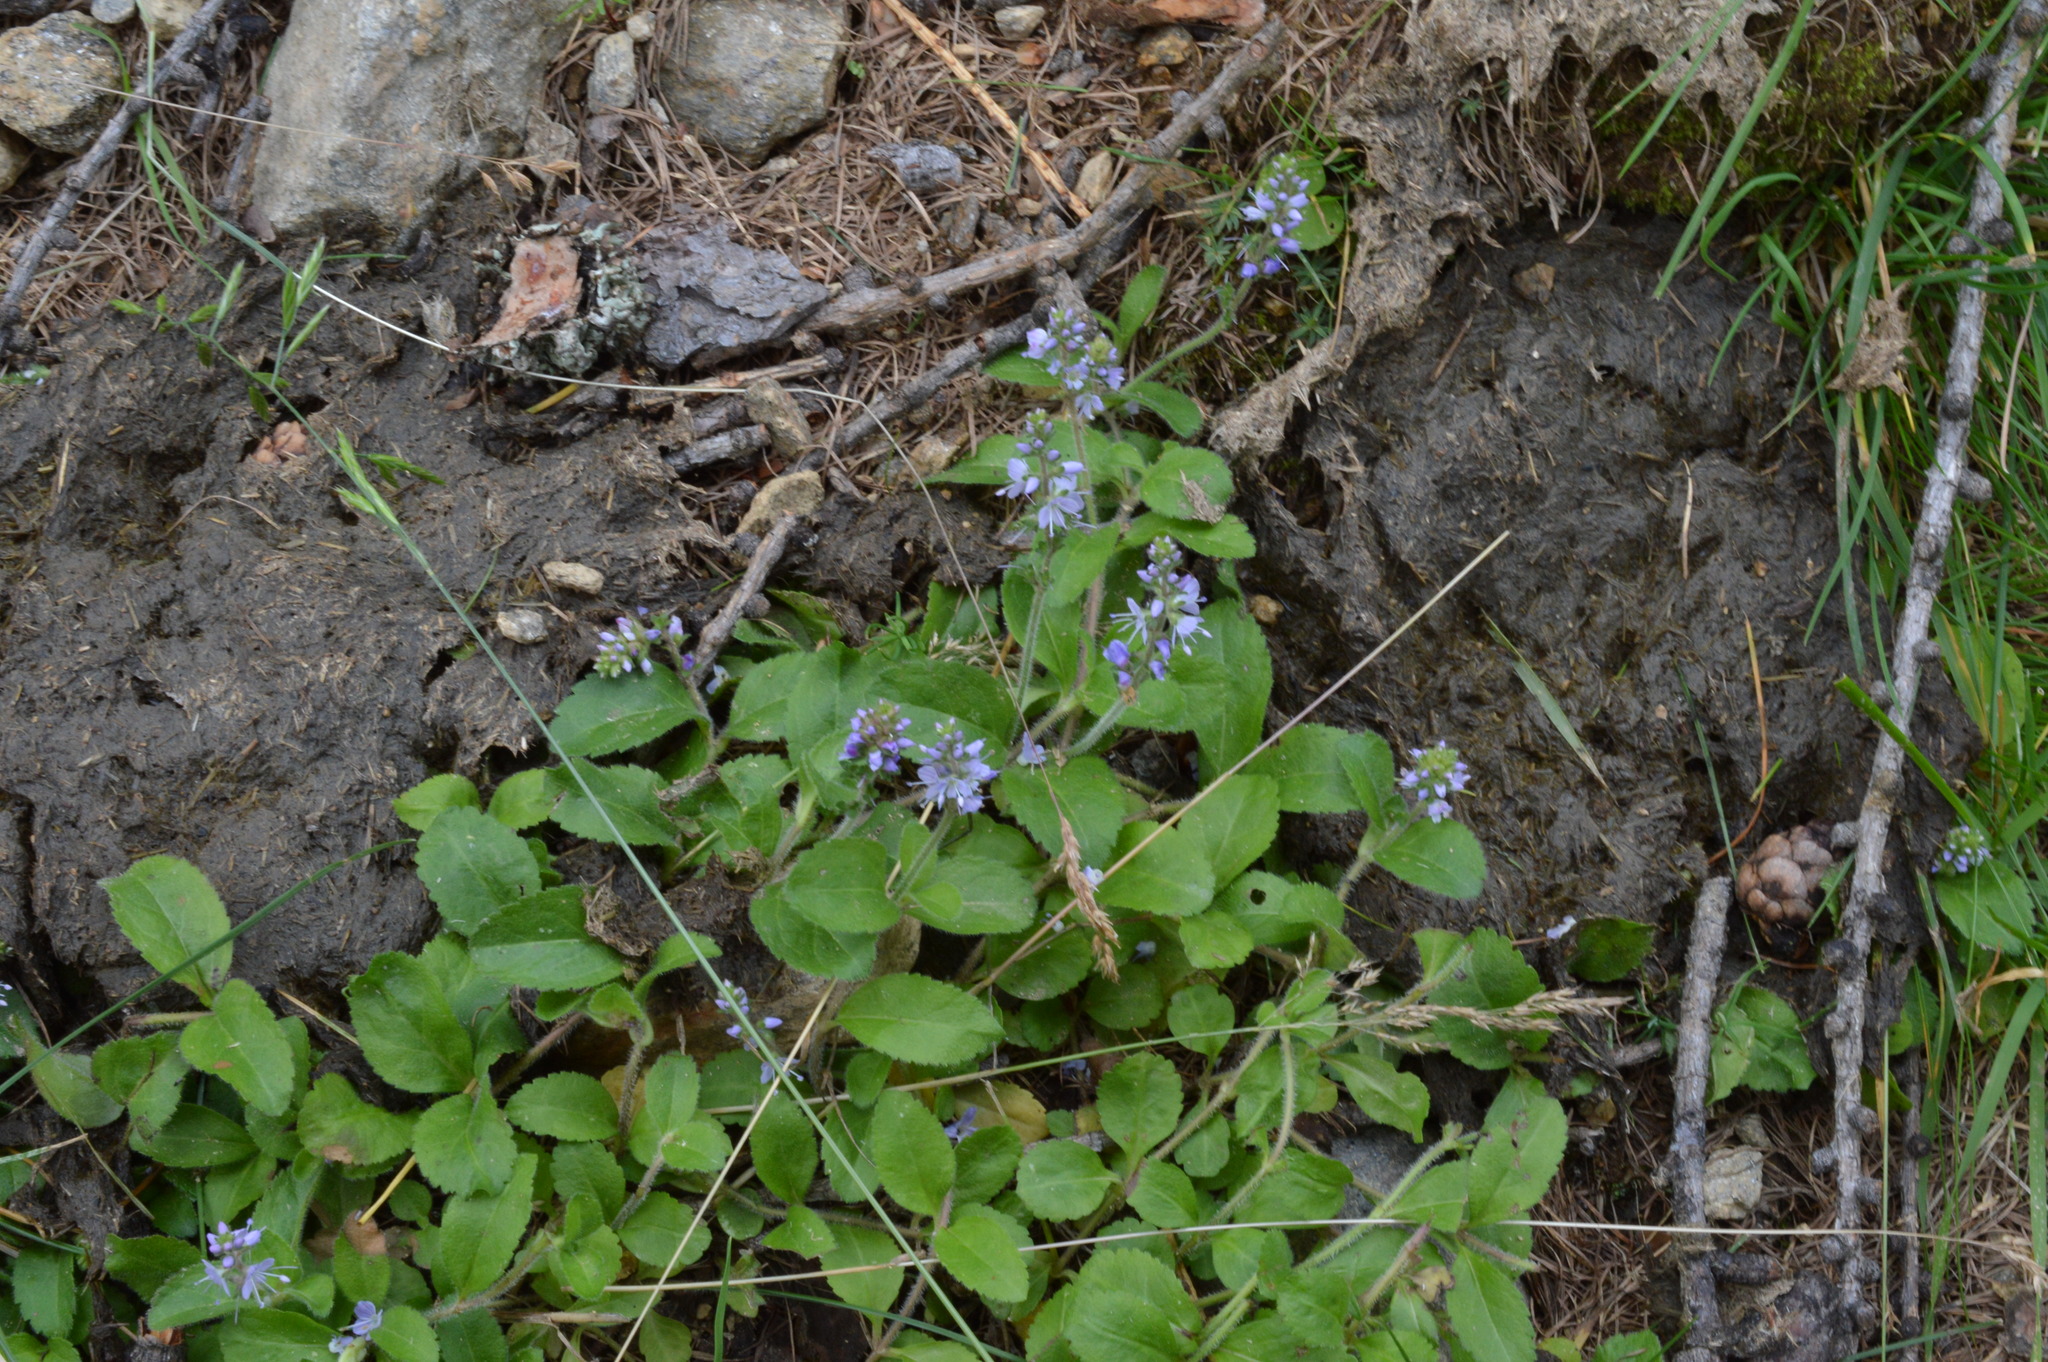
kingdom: Plantae
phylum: Tracheophyta
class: Magnoliopsida
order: Lamiales
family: Plantaginaceae
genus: Veronica
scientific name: Veronica officinalis
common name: Common speedwell
